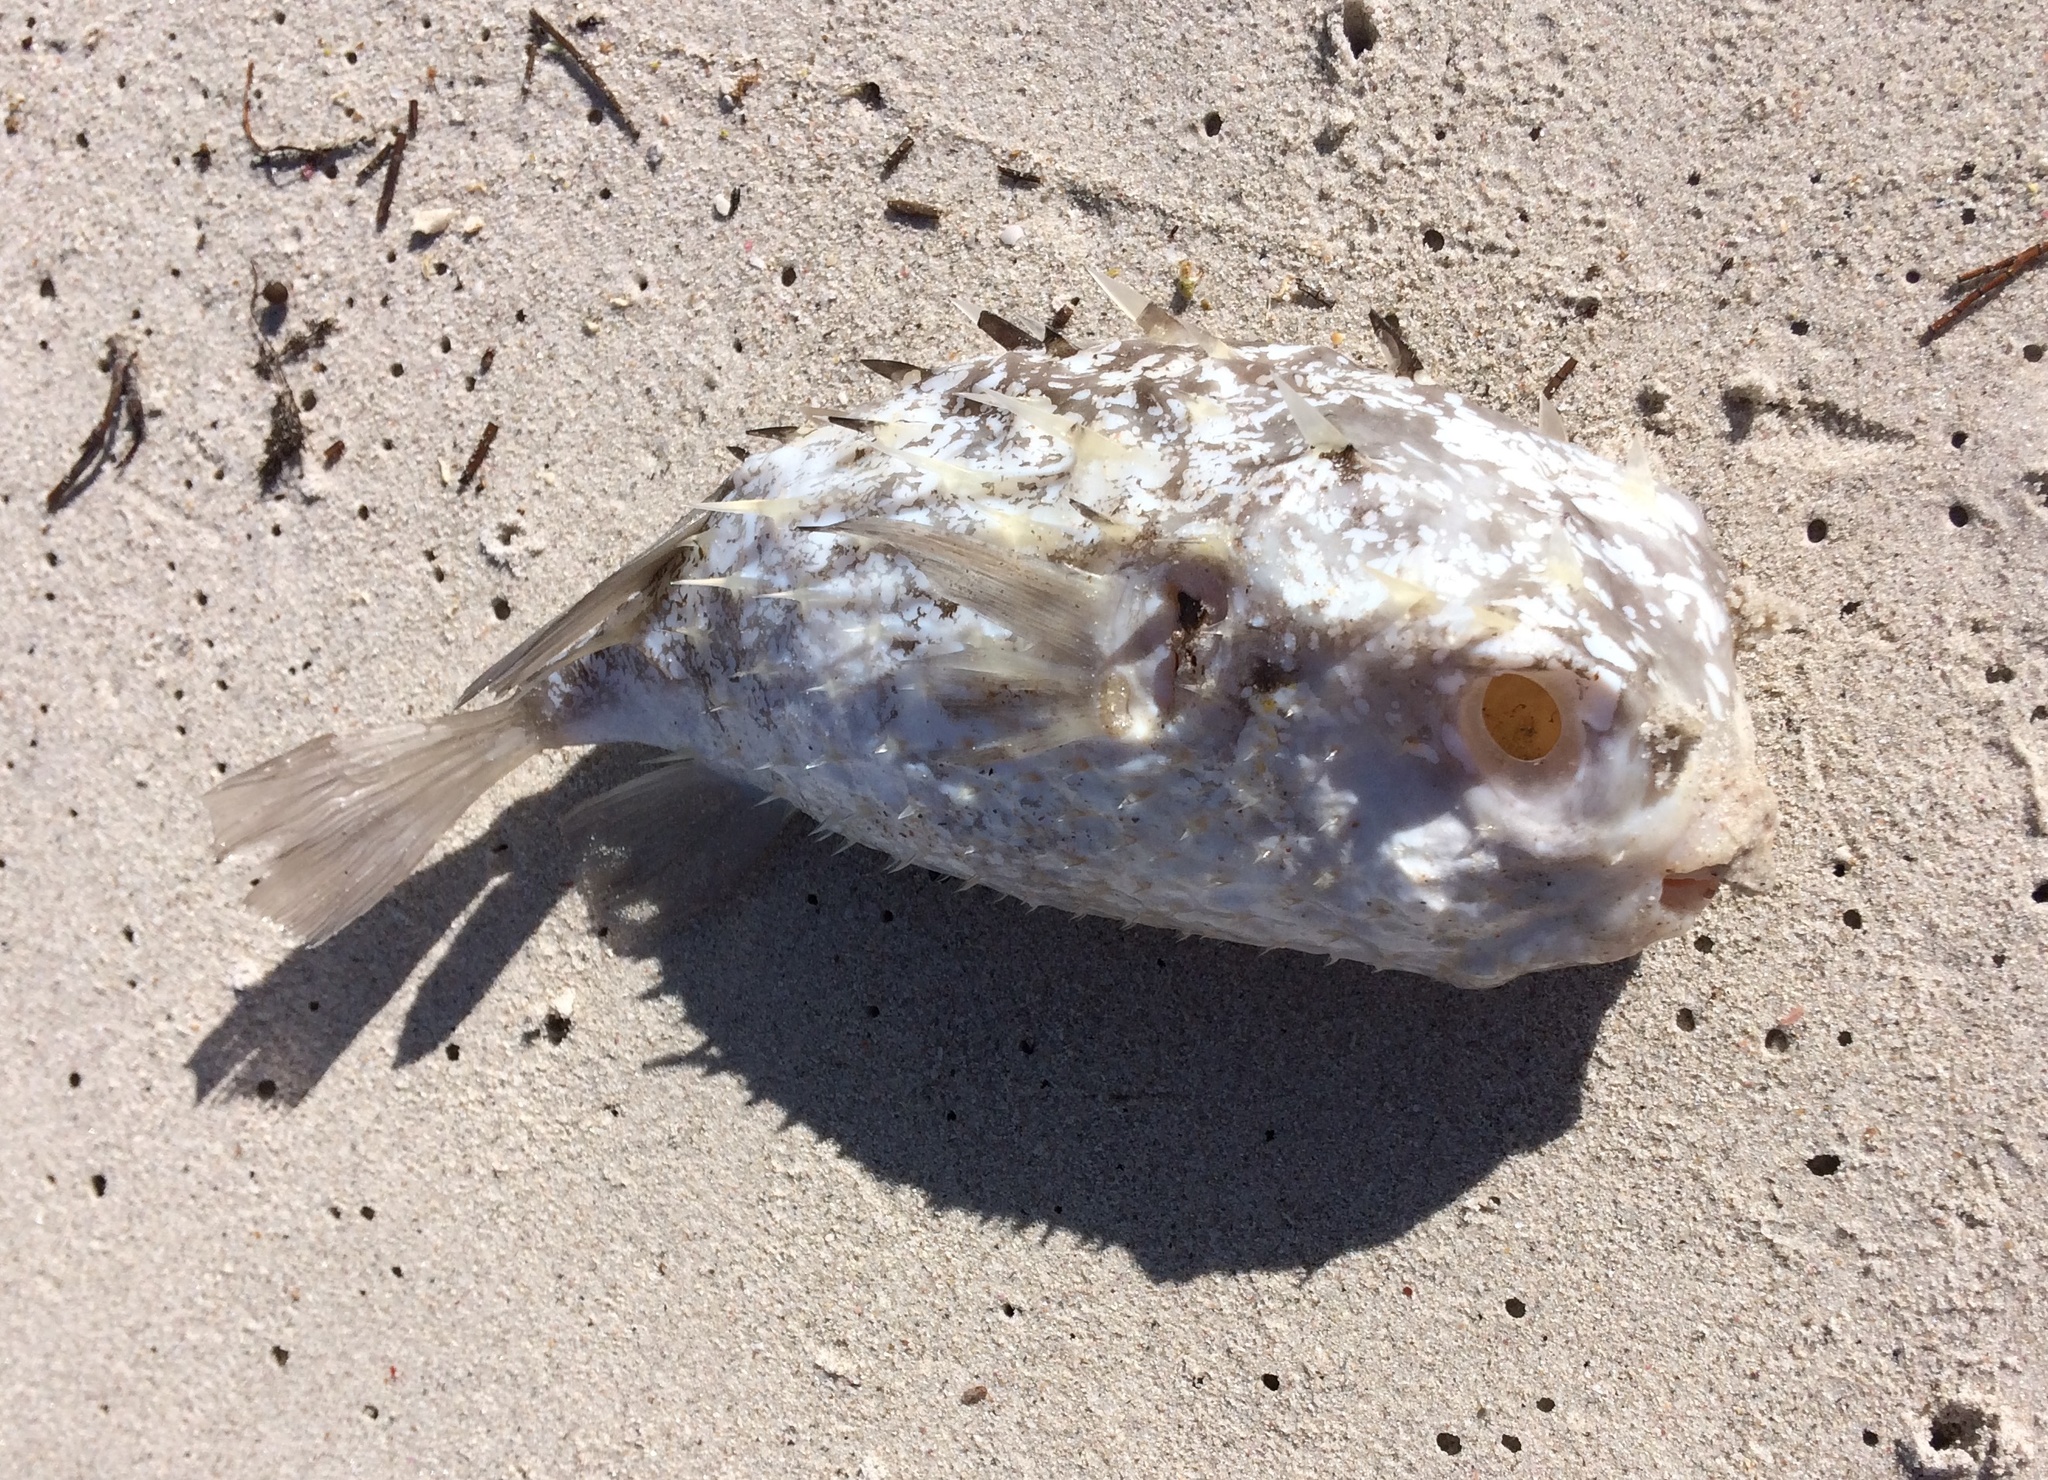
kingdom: Animalia
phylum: Chordata
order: Tetraodontiformes
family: Diodontidae
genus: Allomycterus
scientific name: Allomycterus pilatus
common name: No common name
